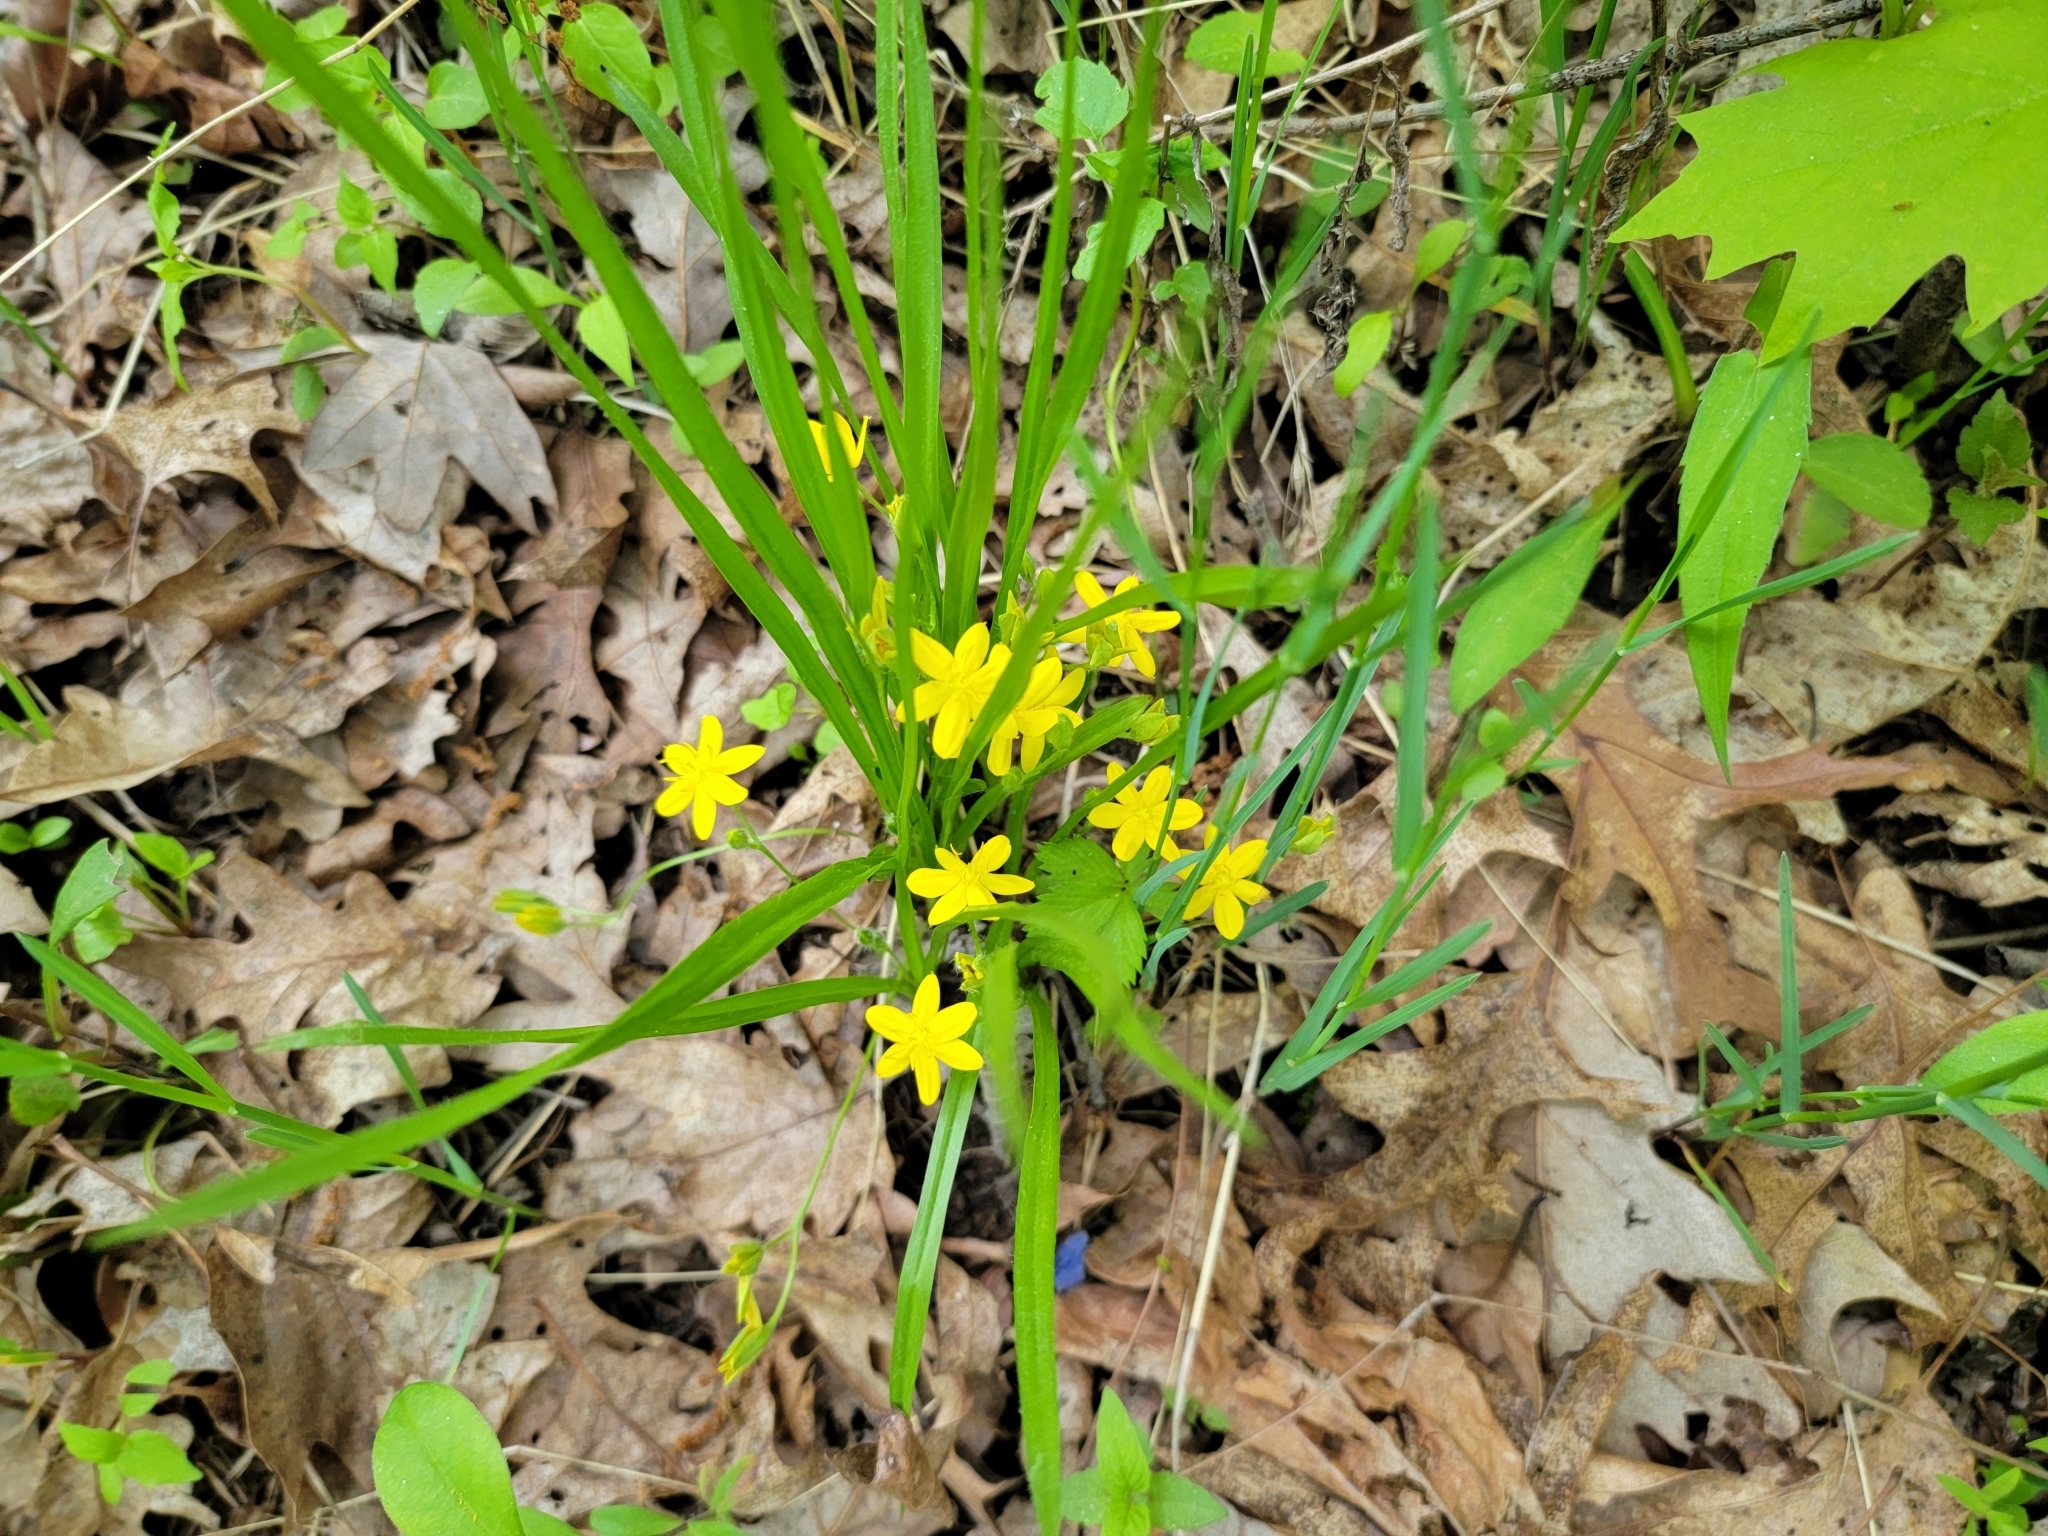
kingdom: Plantae
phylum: Tracheophyta
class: Liliopsida
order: Asparagales
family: Hypoxidaceae
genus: Hypoxis
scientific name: Hypoxis hirsuta
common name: Common goldstar
